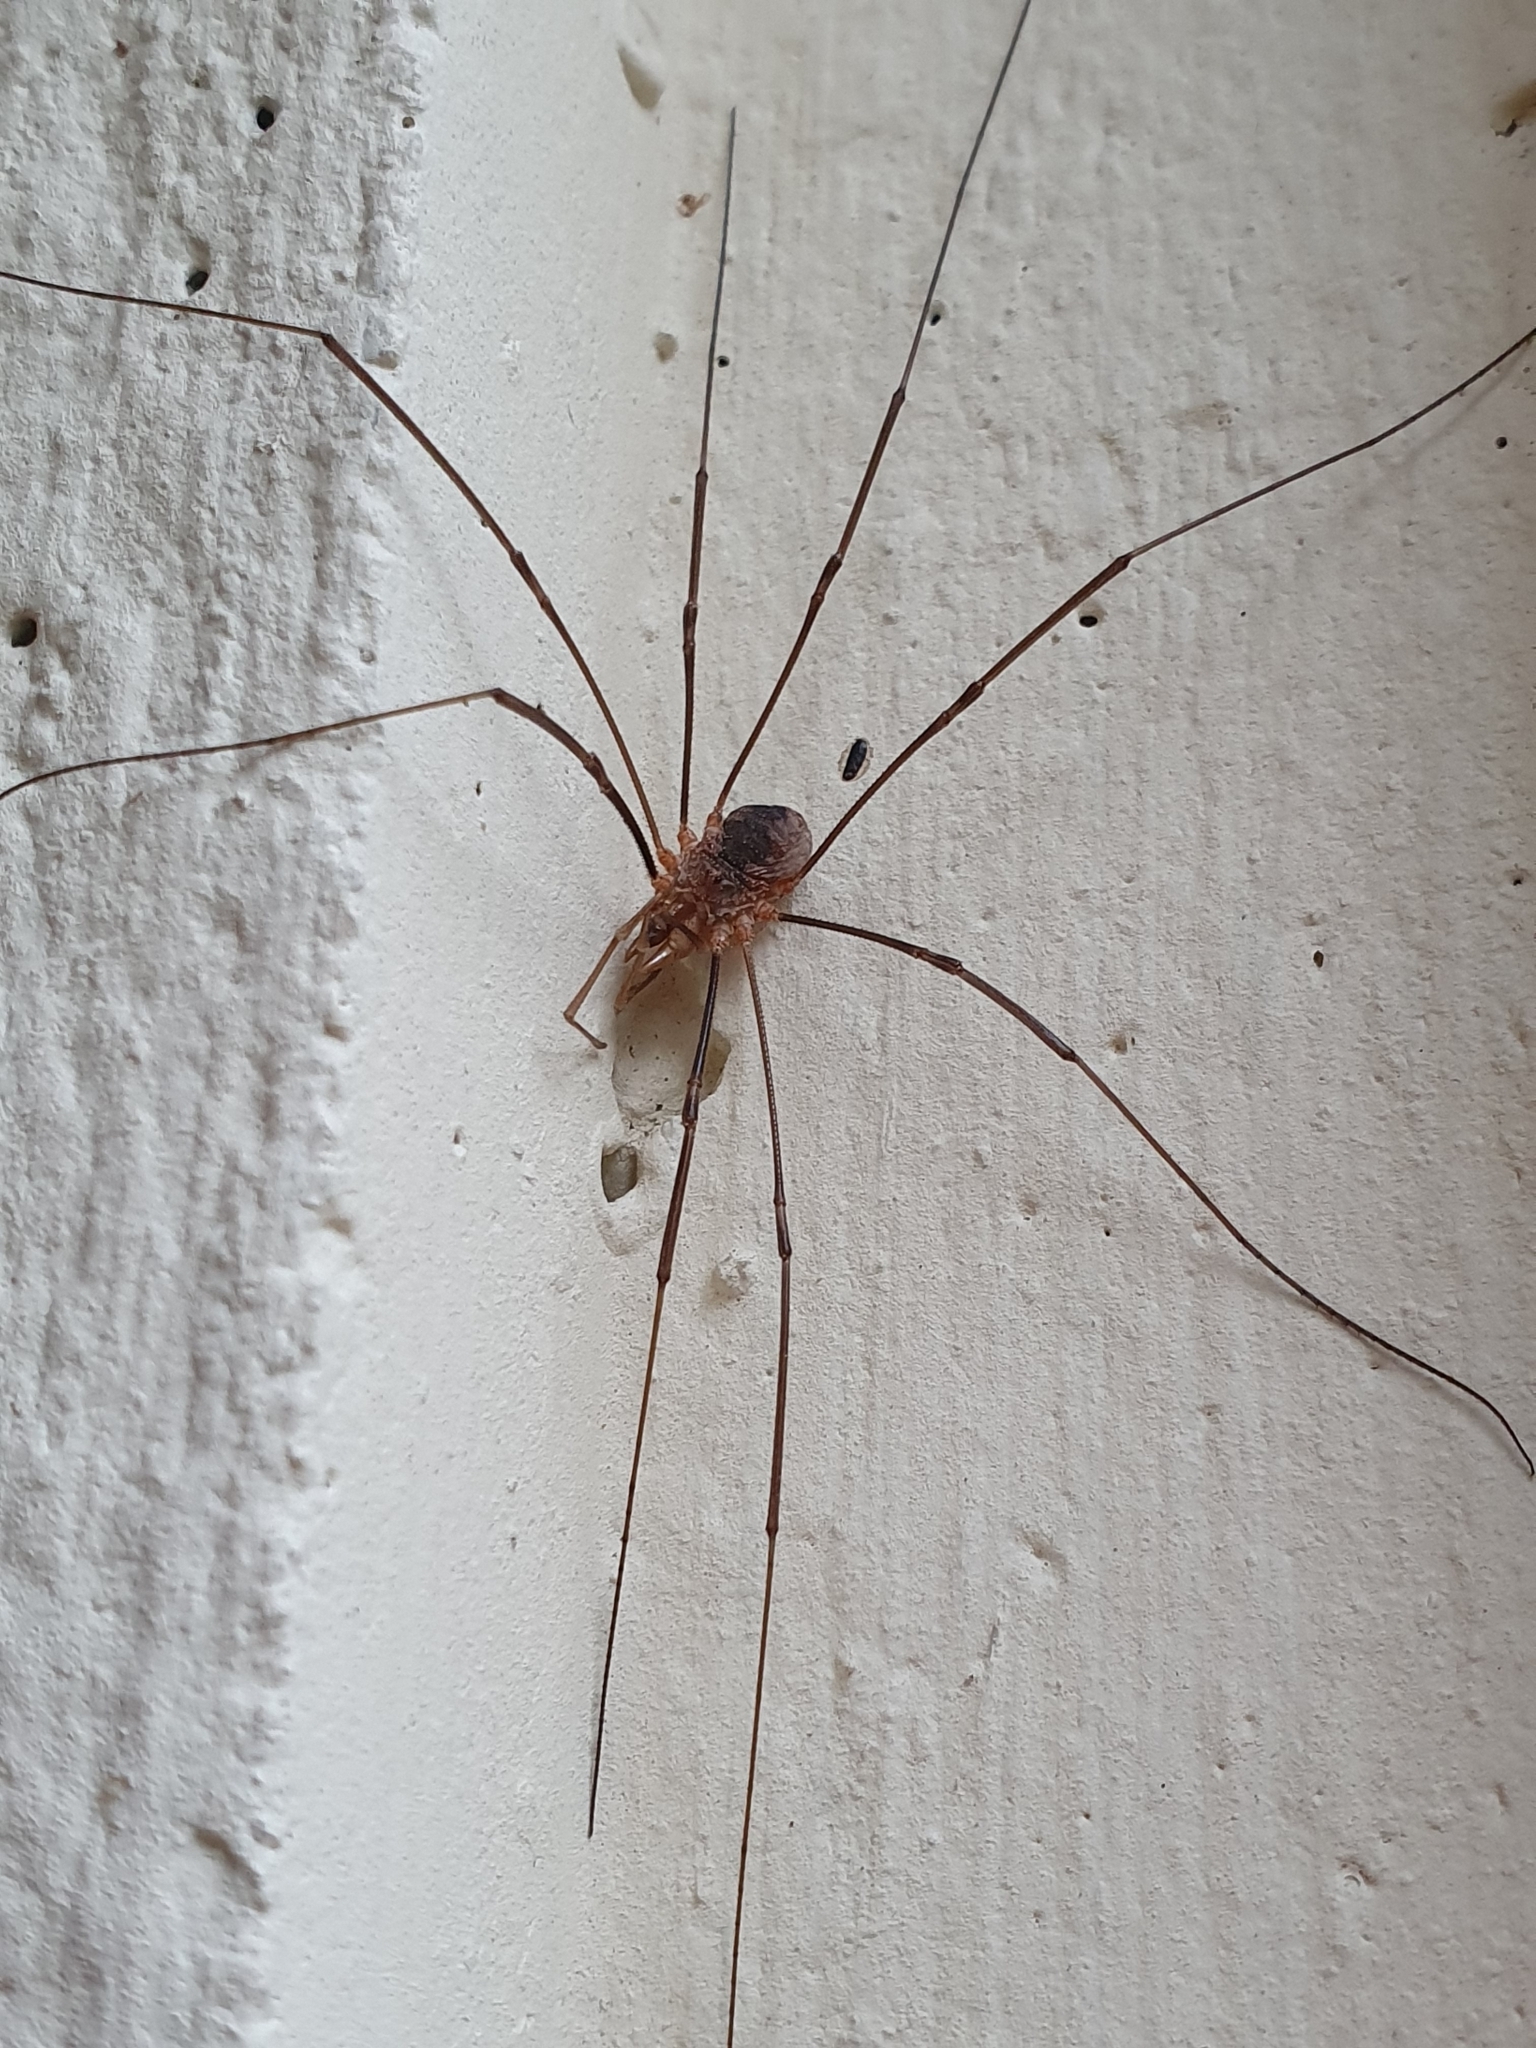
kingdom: Animalia
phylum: Arthropoda
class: Arachnida
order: Opiliones
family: Phalangiidae
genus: Phalangium
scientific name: Phalangium opilio
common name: Daddy longleg
